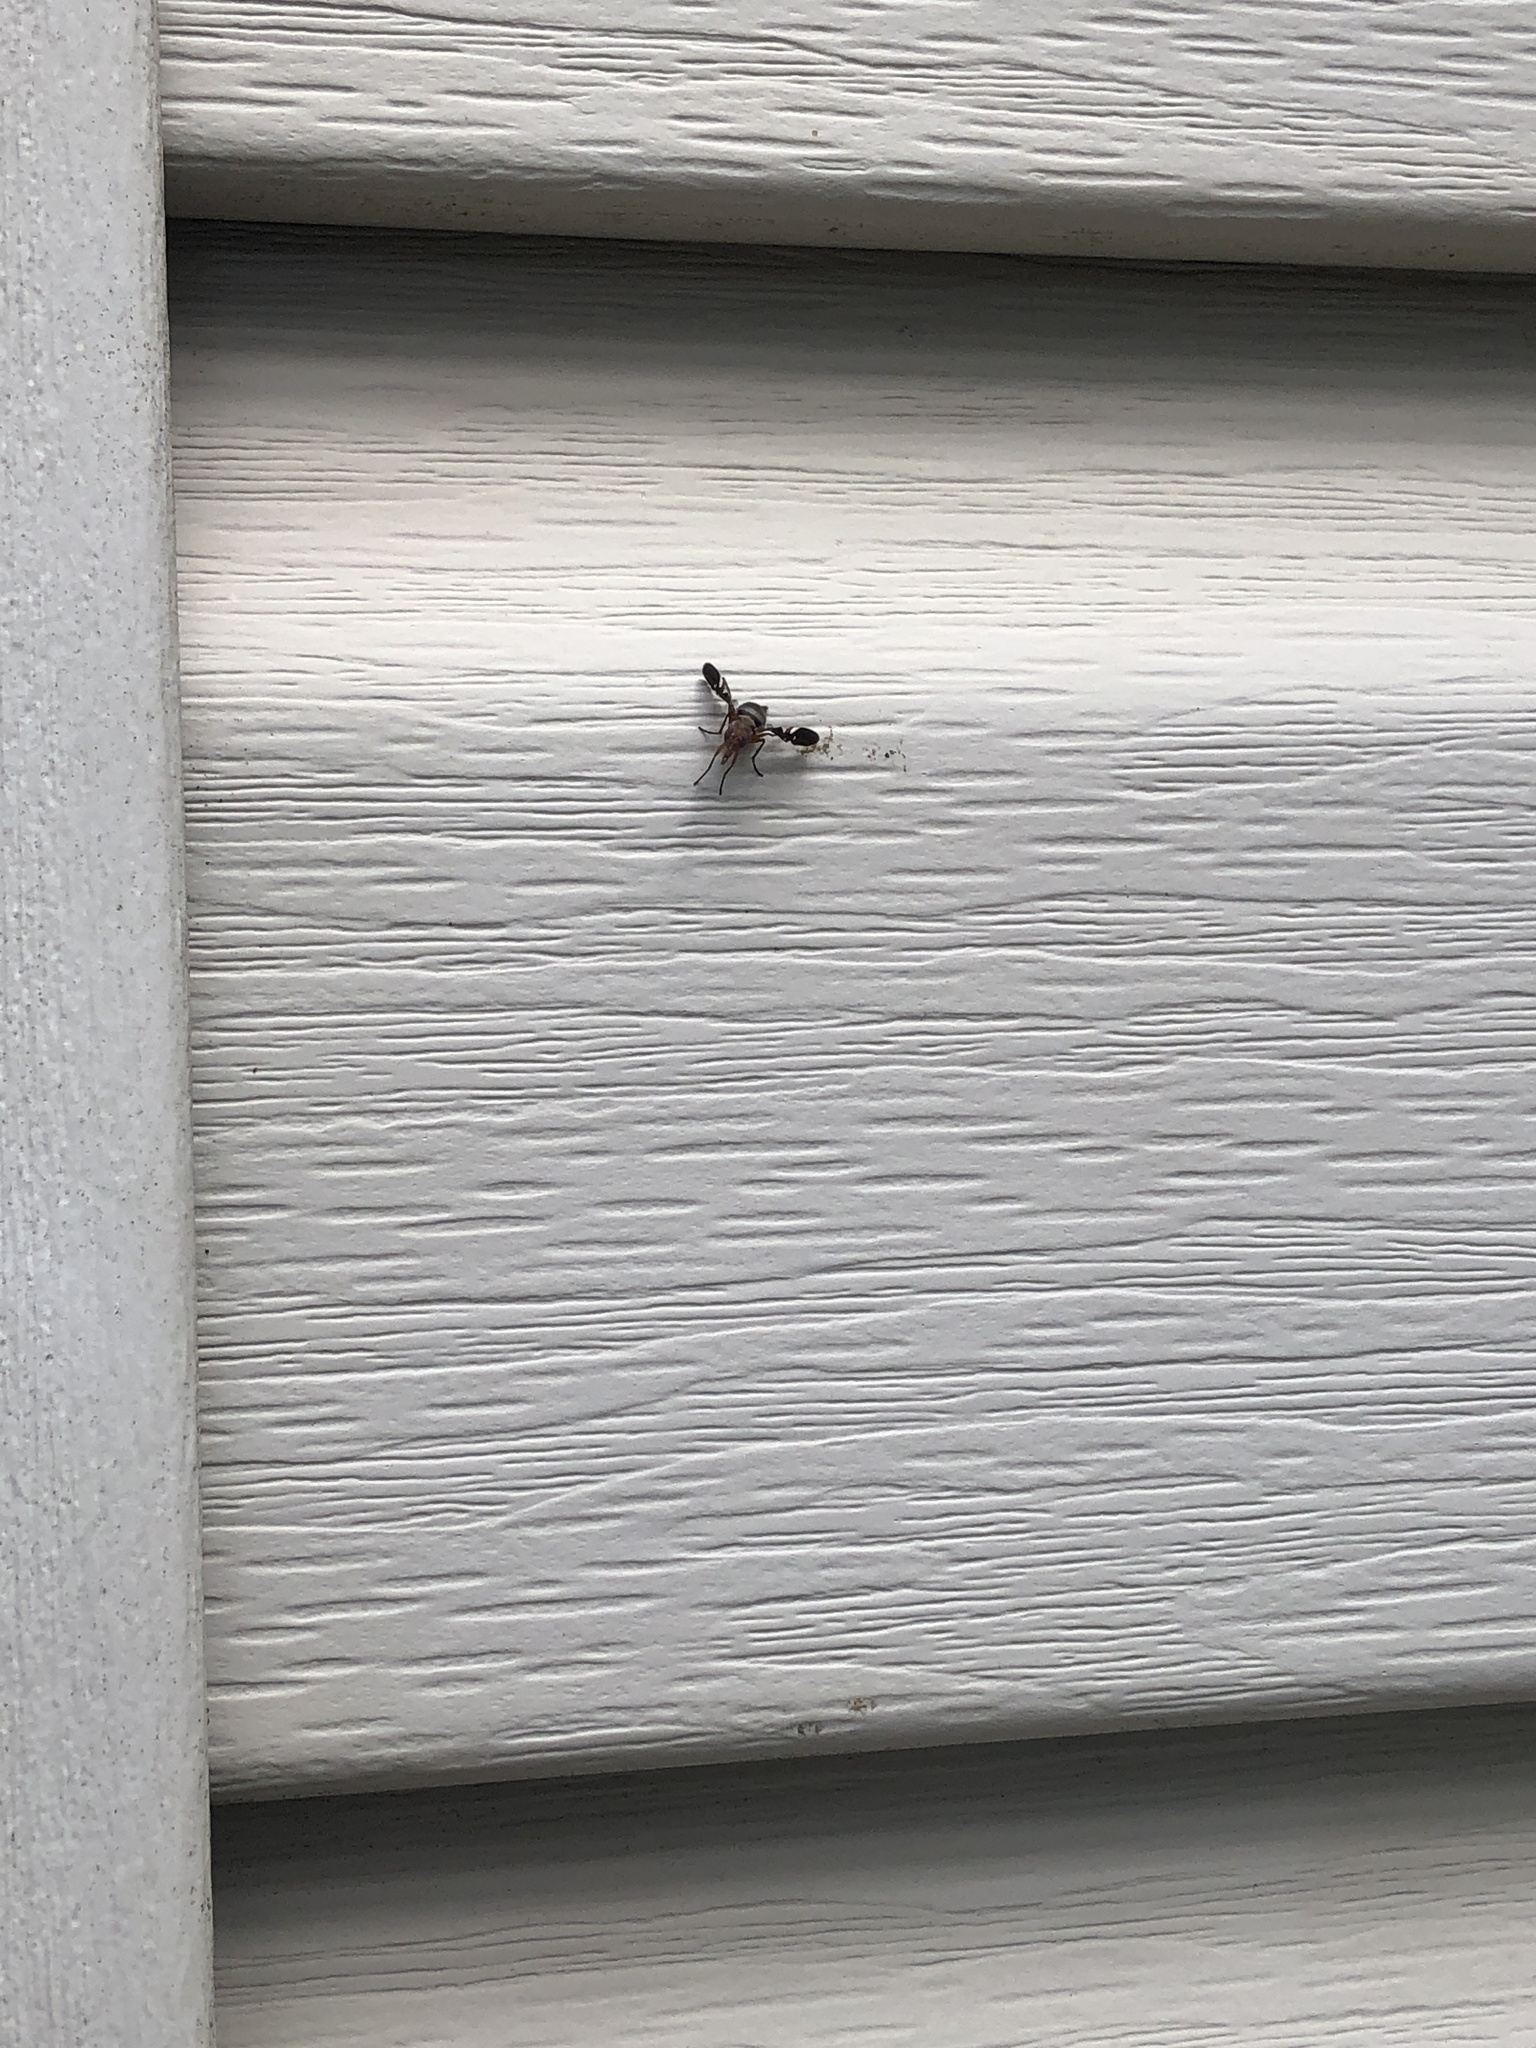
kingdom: Animalia
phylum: Arthropoda
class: Insecta
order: Diptera
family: Ulidiidae
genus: Delphinia
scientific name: Delphinia picta
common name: Common picture-winged fly
